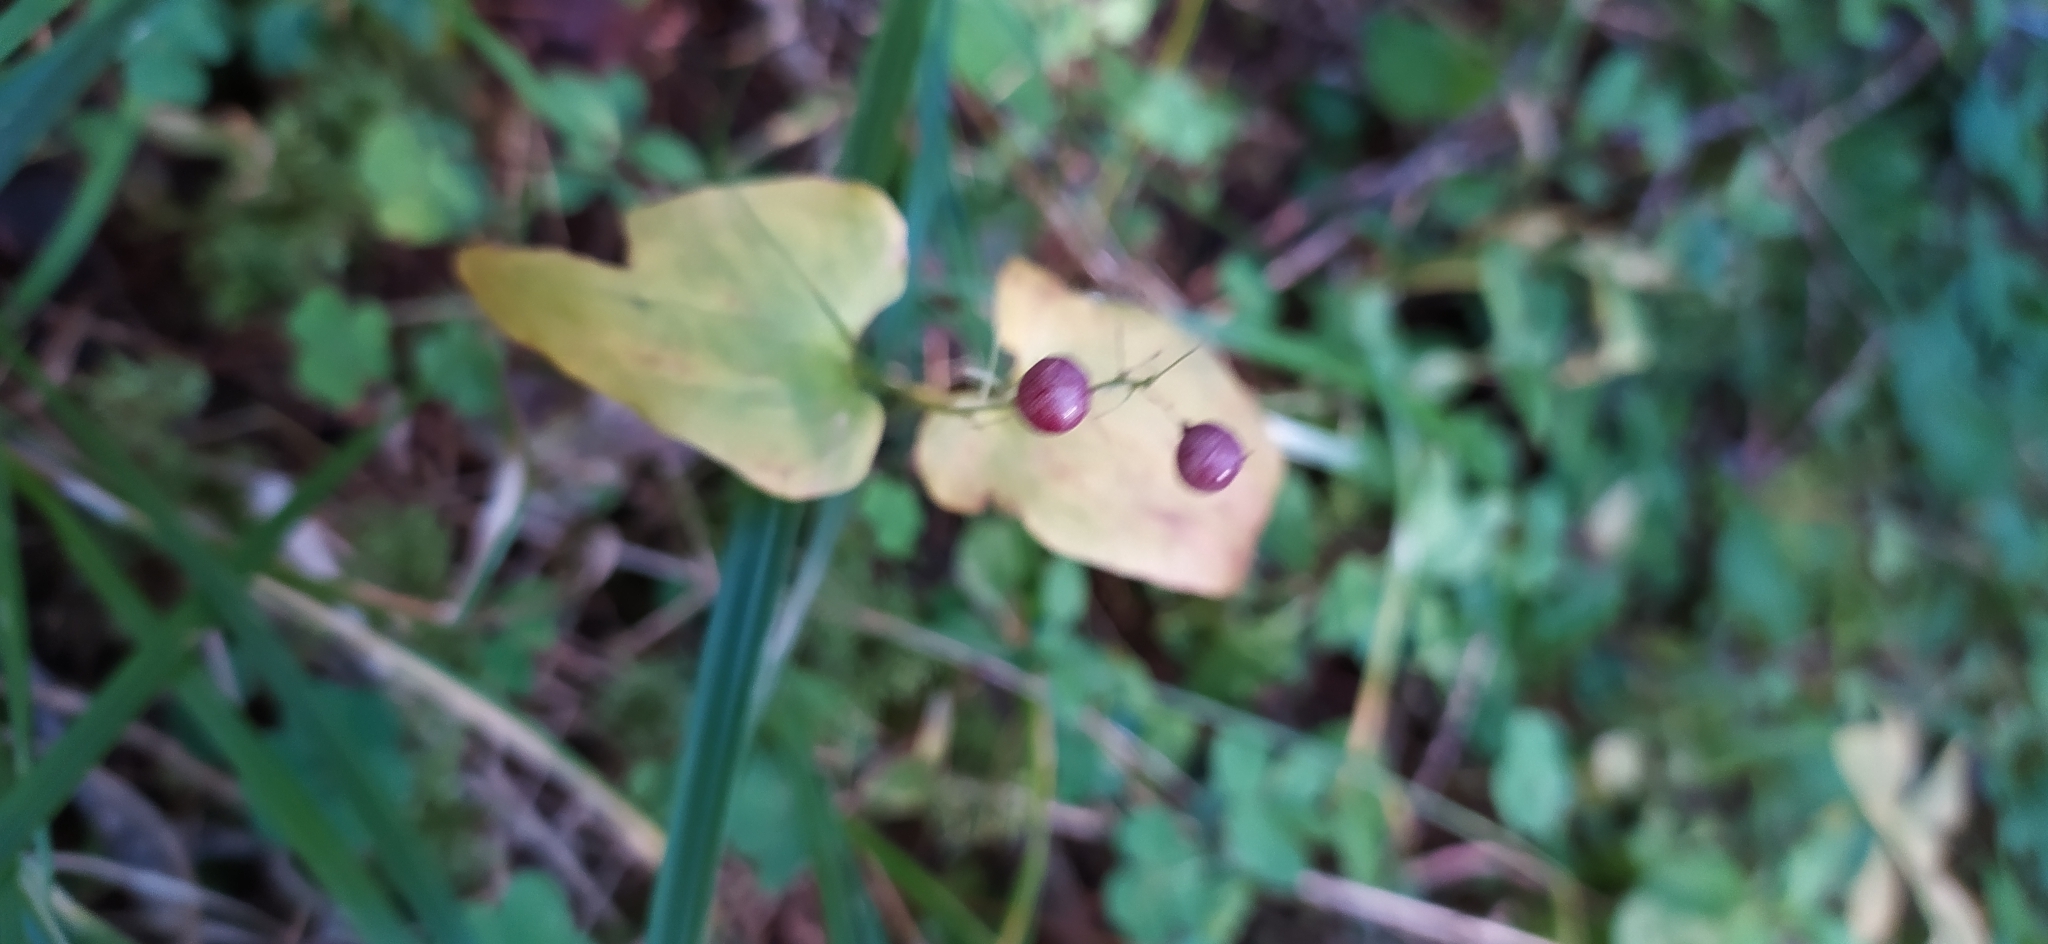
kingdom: Plantae
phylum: Tracheophyta
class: Liliopsida
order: Asparagales
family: Asparagaceae
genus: Maianthemum
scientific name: Maianthemum bifolium
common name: May lily
